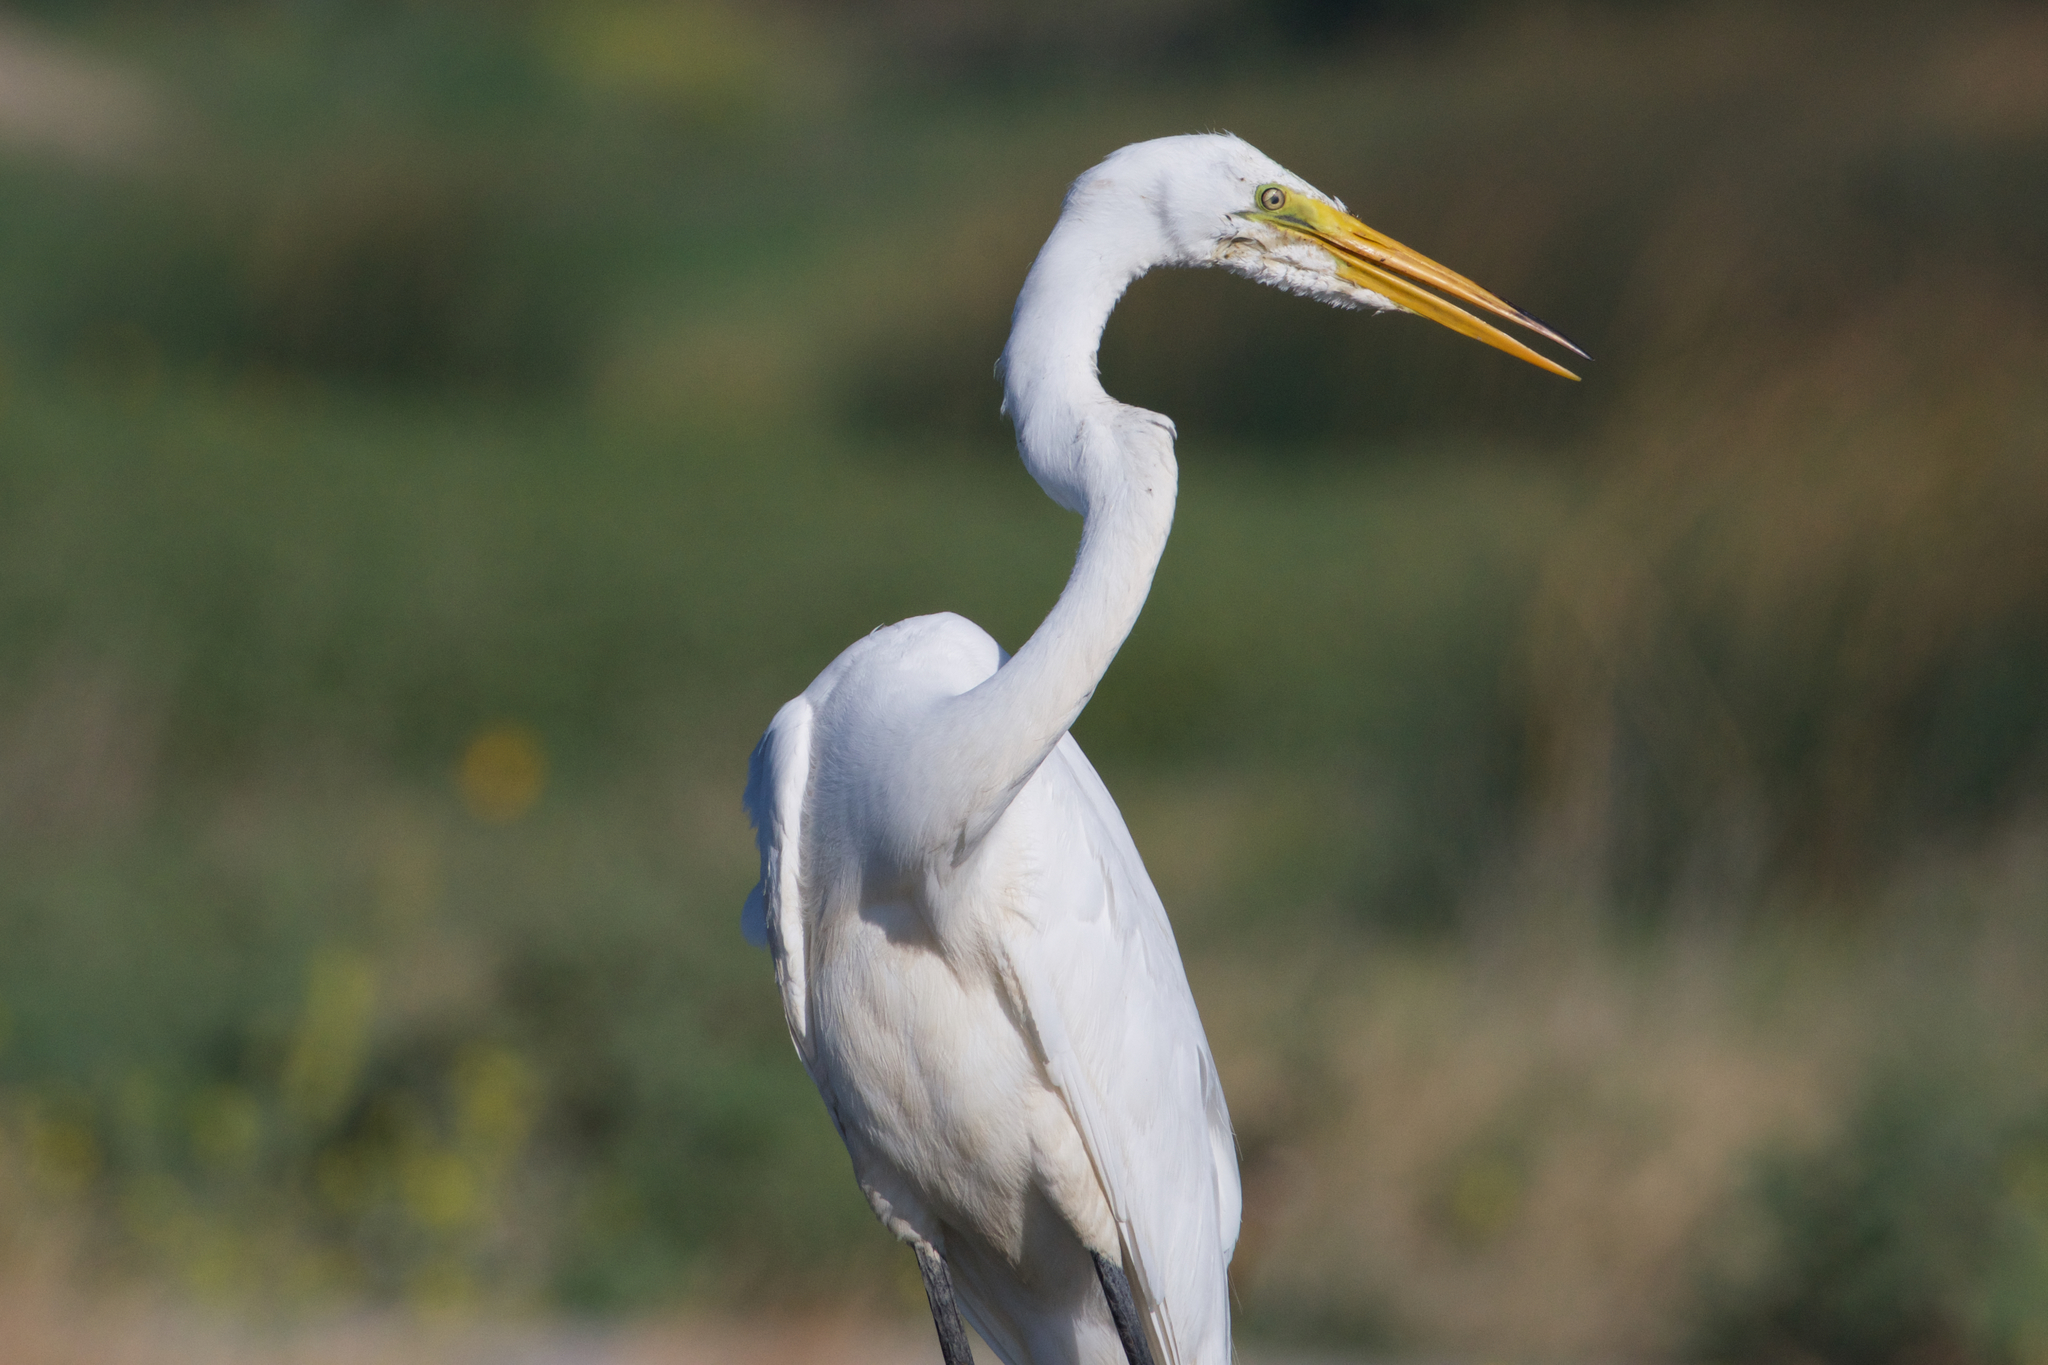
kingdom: Animalia
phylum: Chordata
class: Aves
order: Pelecaniformes
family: Ardeidae
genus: Ardea
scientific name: Ardea alba
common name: Great egret
